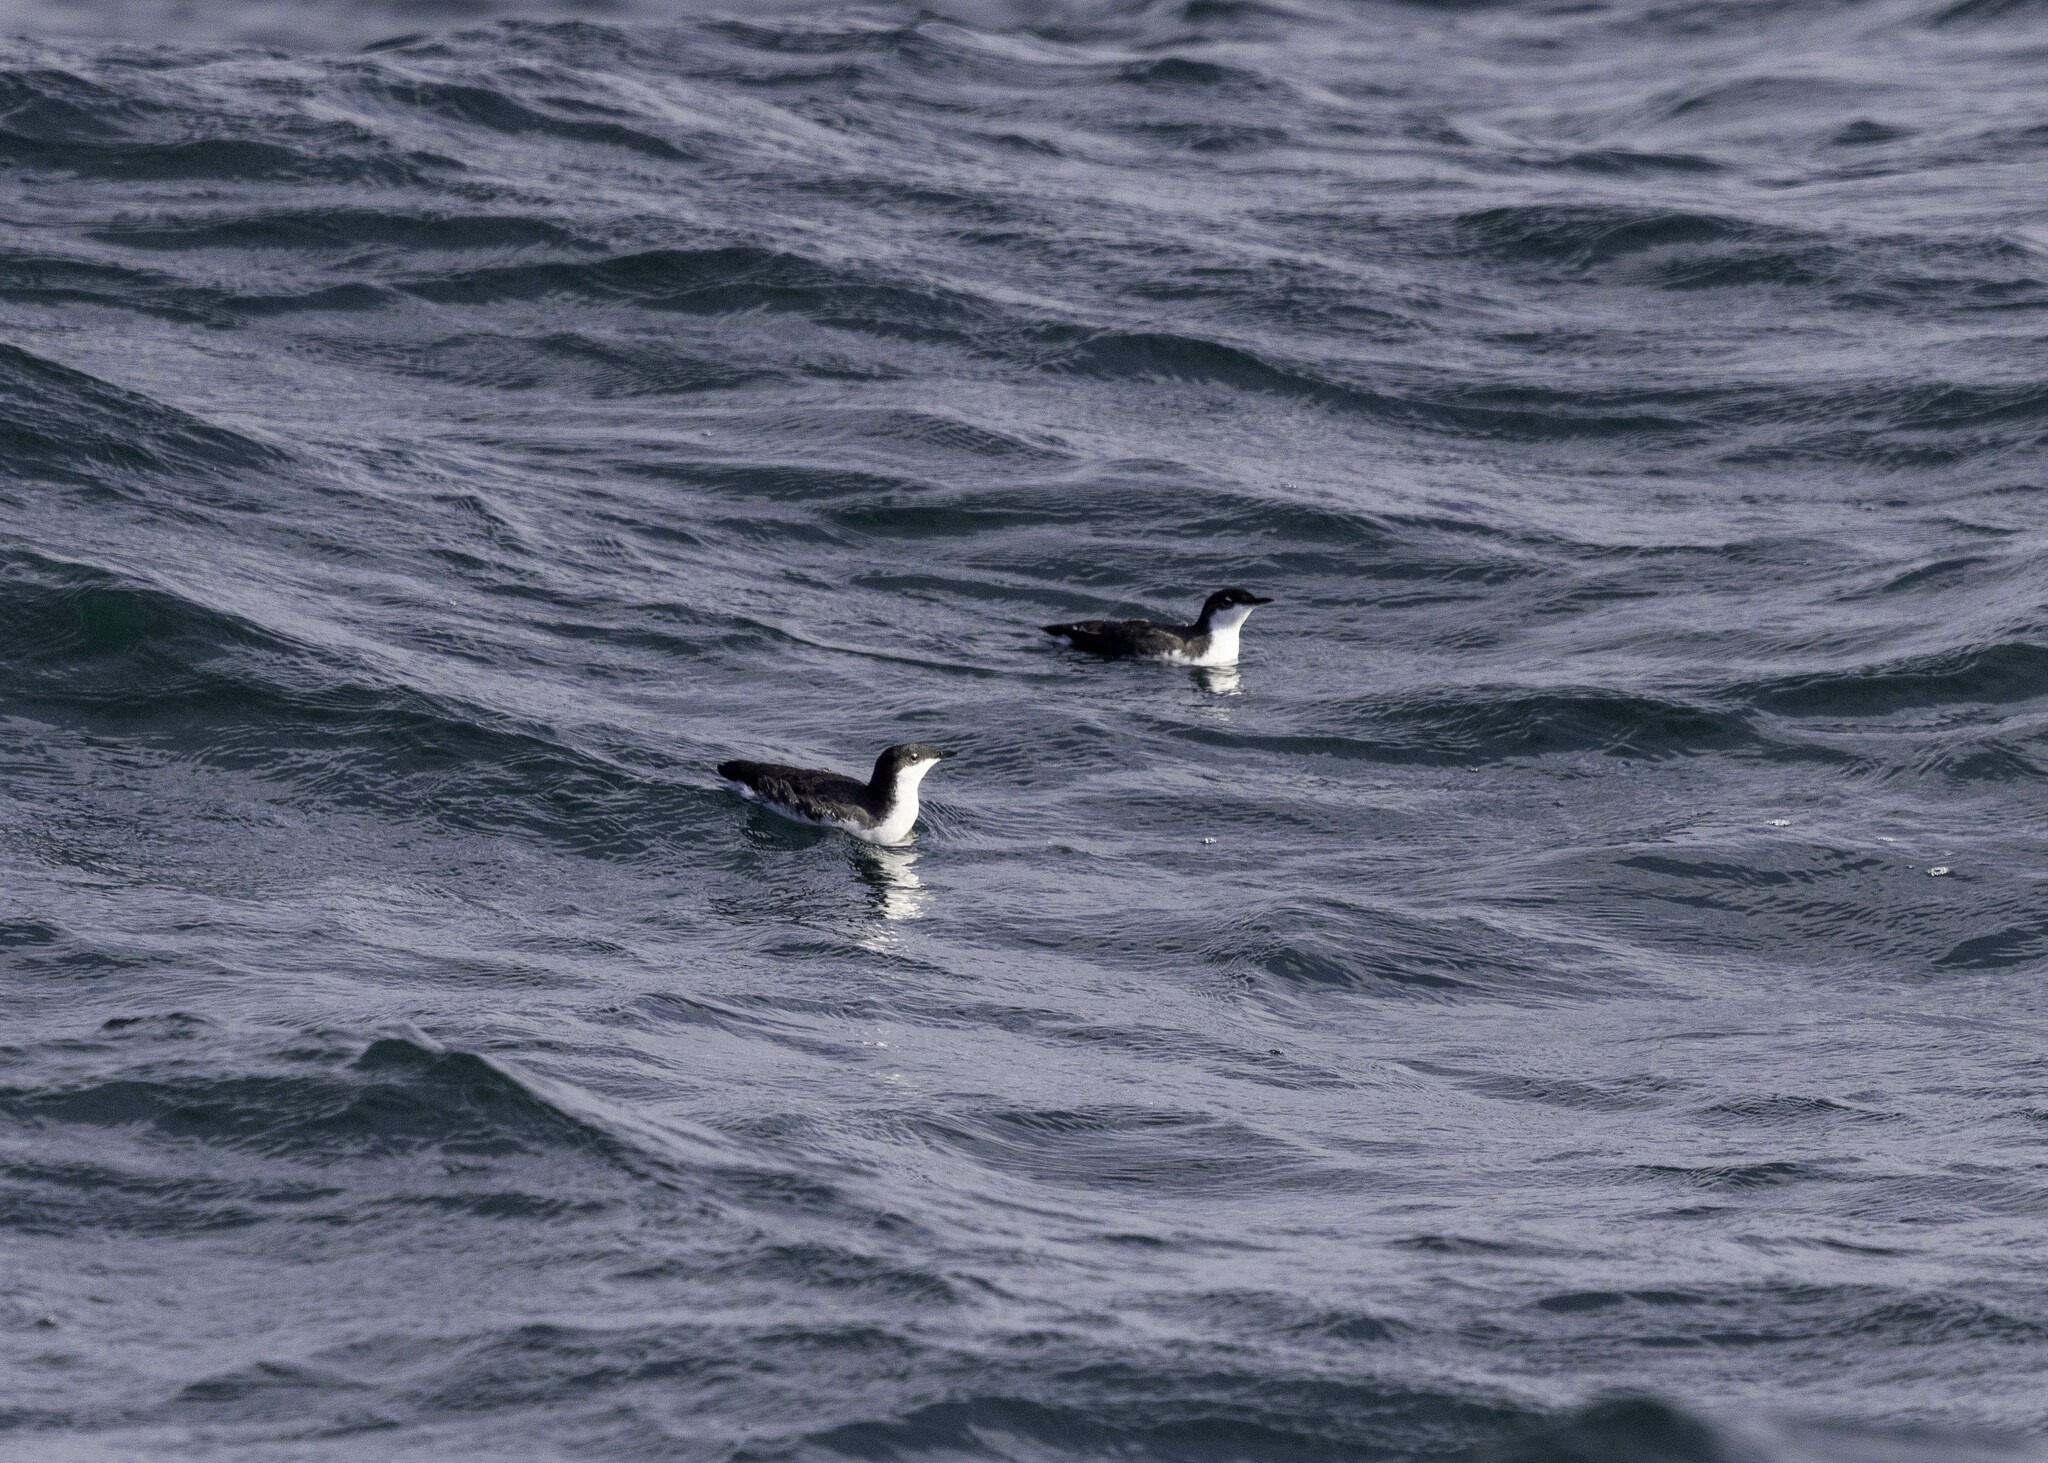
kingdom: Animalia
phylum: Chordata
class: Aves
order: Charadriiformes
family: Alcidae
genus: Synthliboramphus
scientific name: Synthliboramphus scrippsi
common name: Scripps's murrelet
